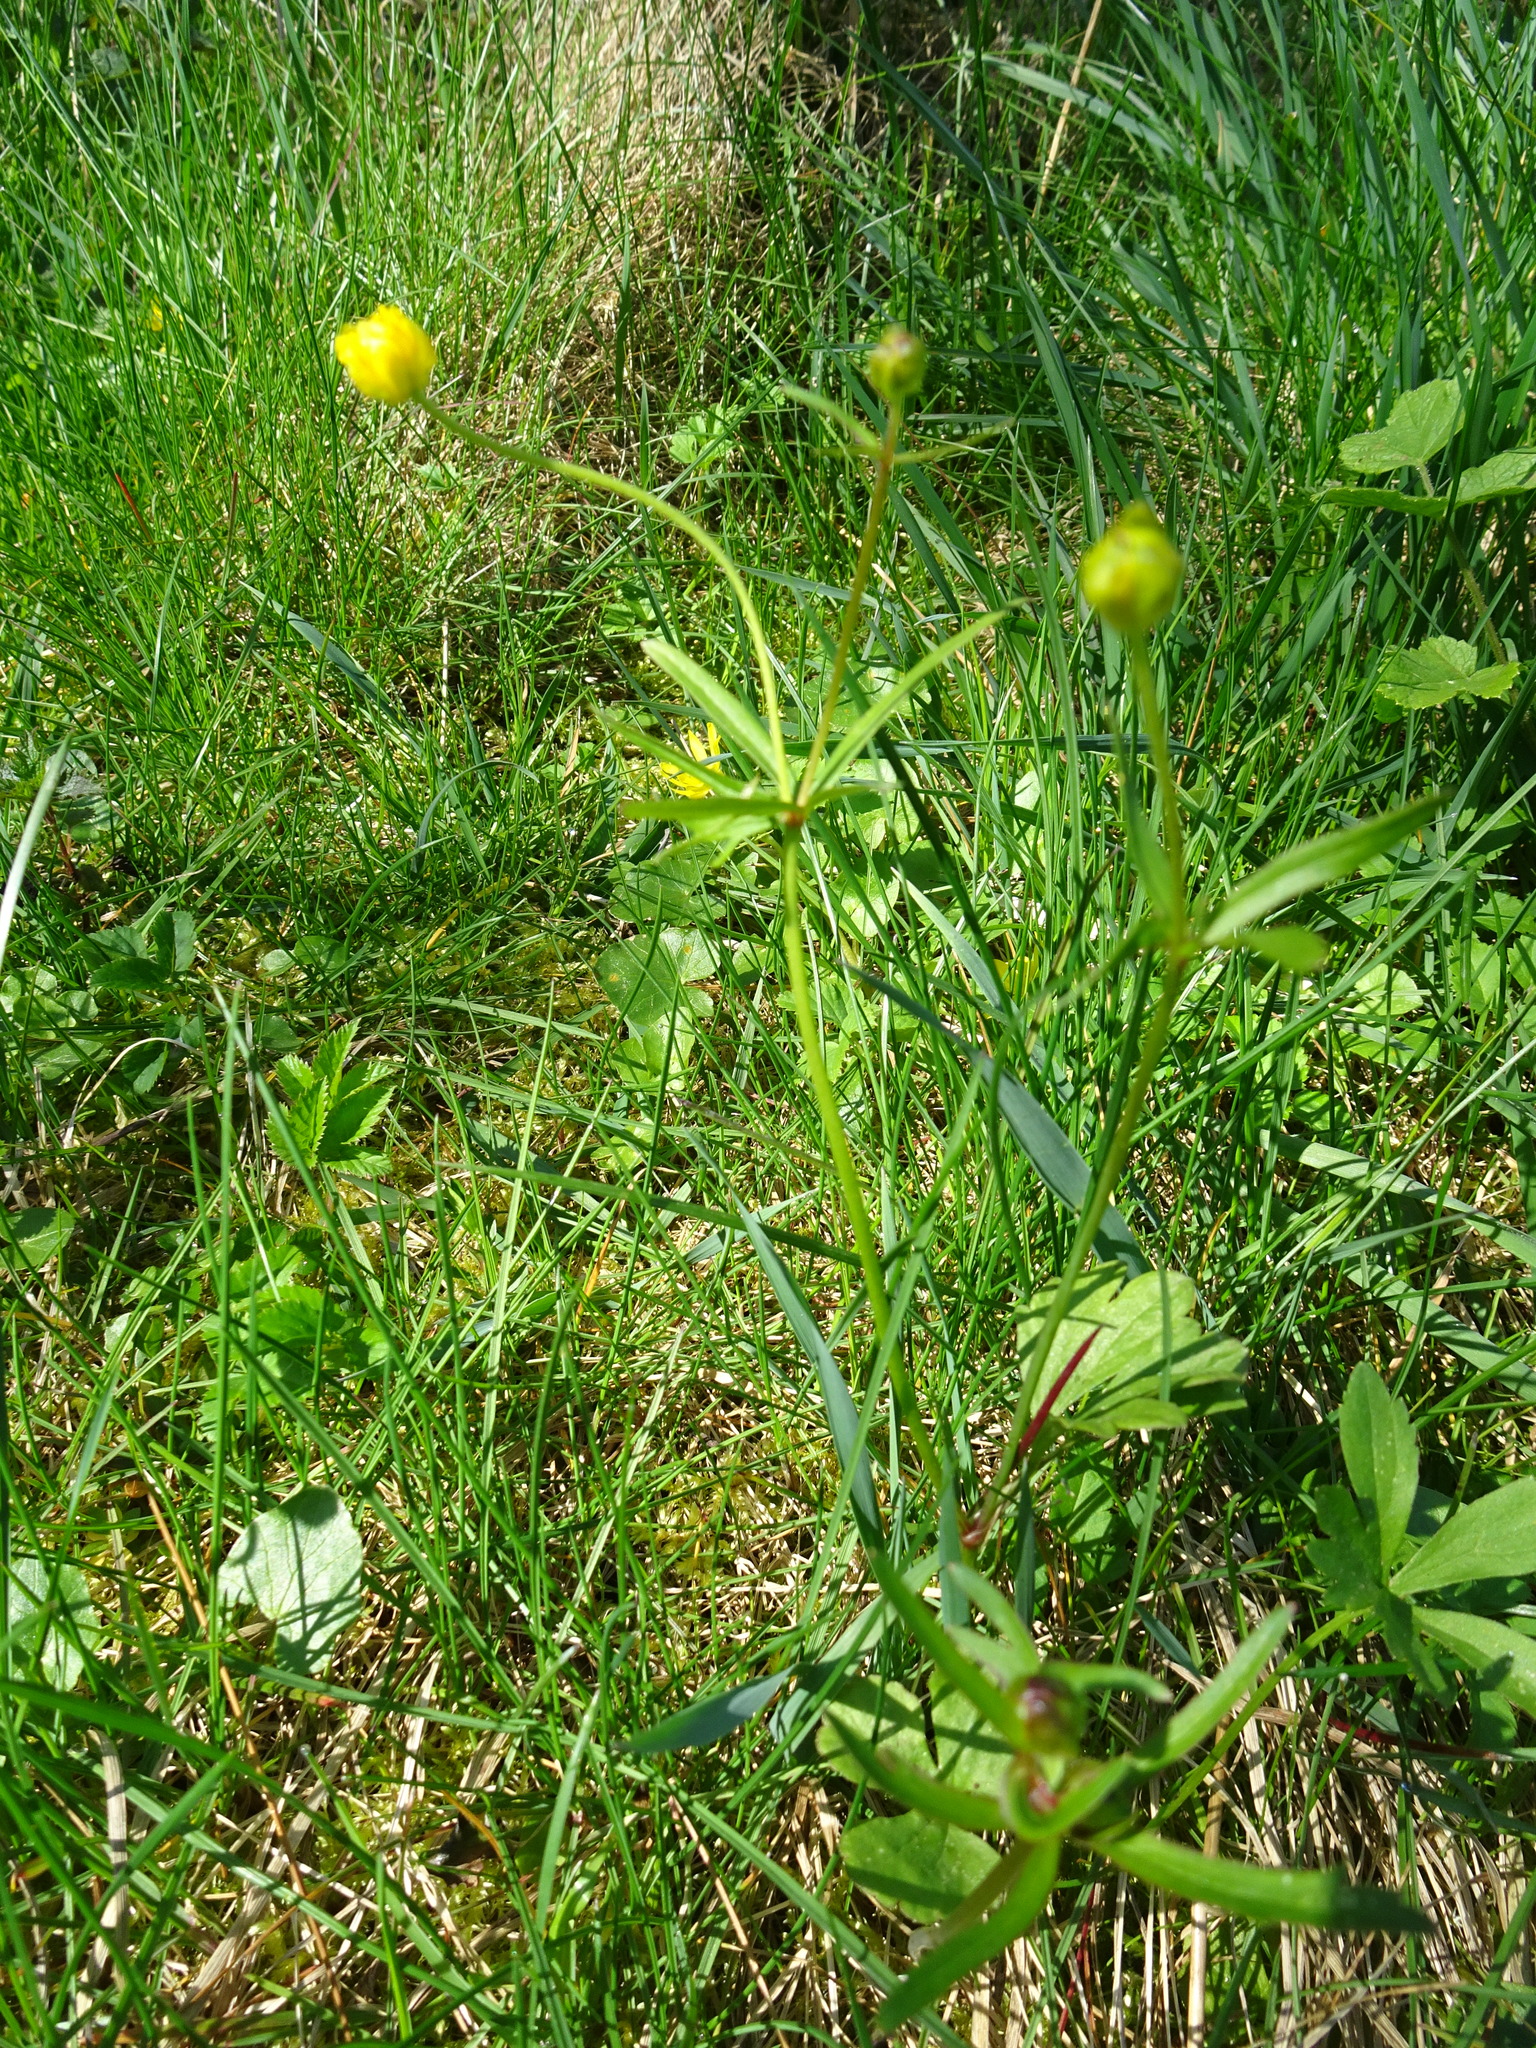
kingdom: Plantae
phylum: Tracheophyta
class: Magnoliopsida
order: Ranunculales
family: Ranunculaceae
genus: Ranunculus
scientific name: Ranunculus auricomus
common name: Goldilocks buttercup
